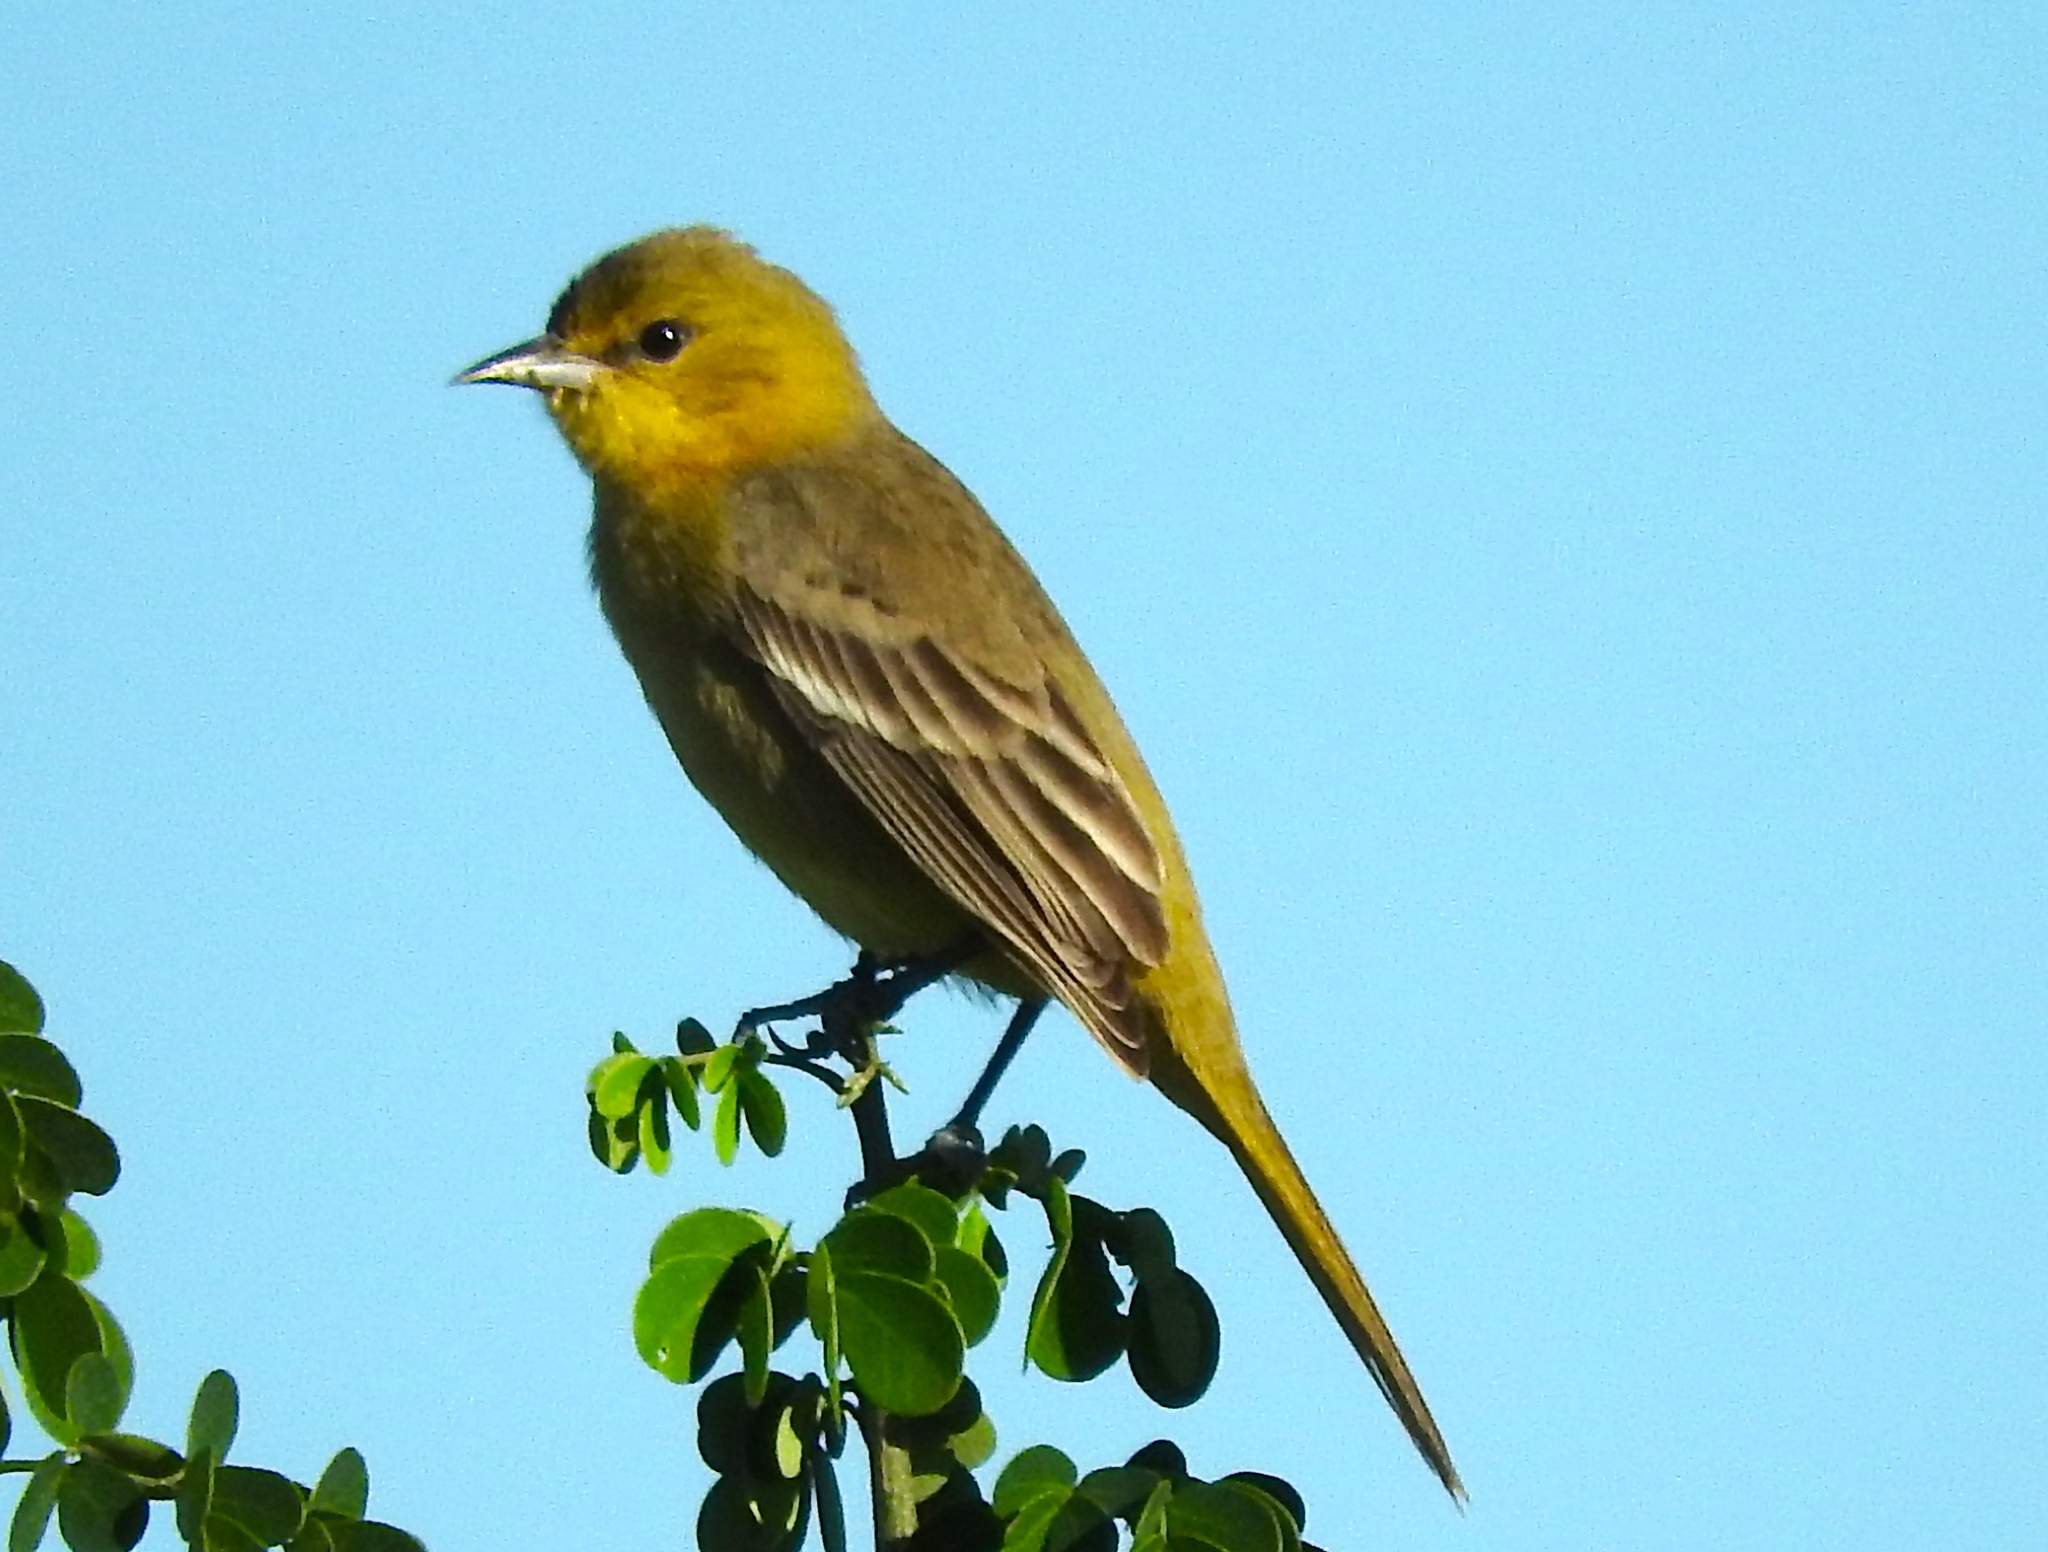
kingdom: Animalia
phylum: Chordata
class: Aves
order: Passeriformes
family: Icteridae
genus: Icterus
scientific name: Icterus spurius
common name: Orchard oriole
